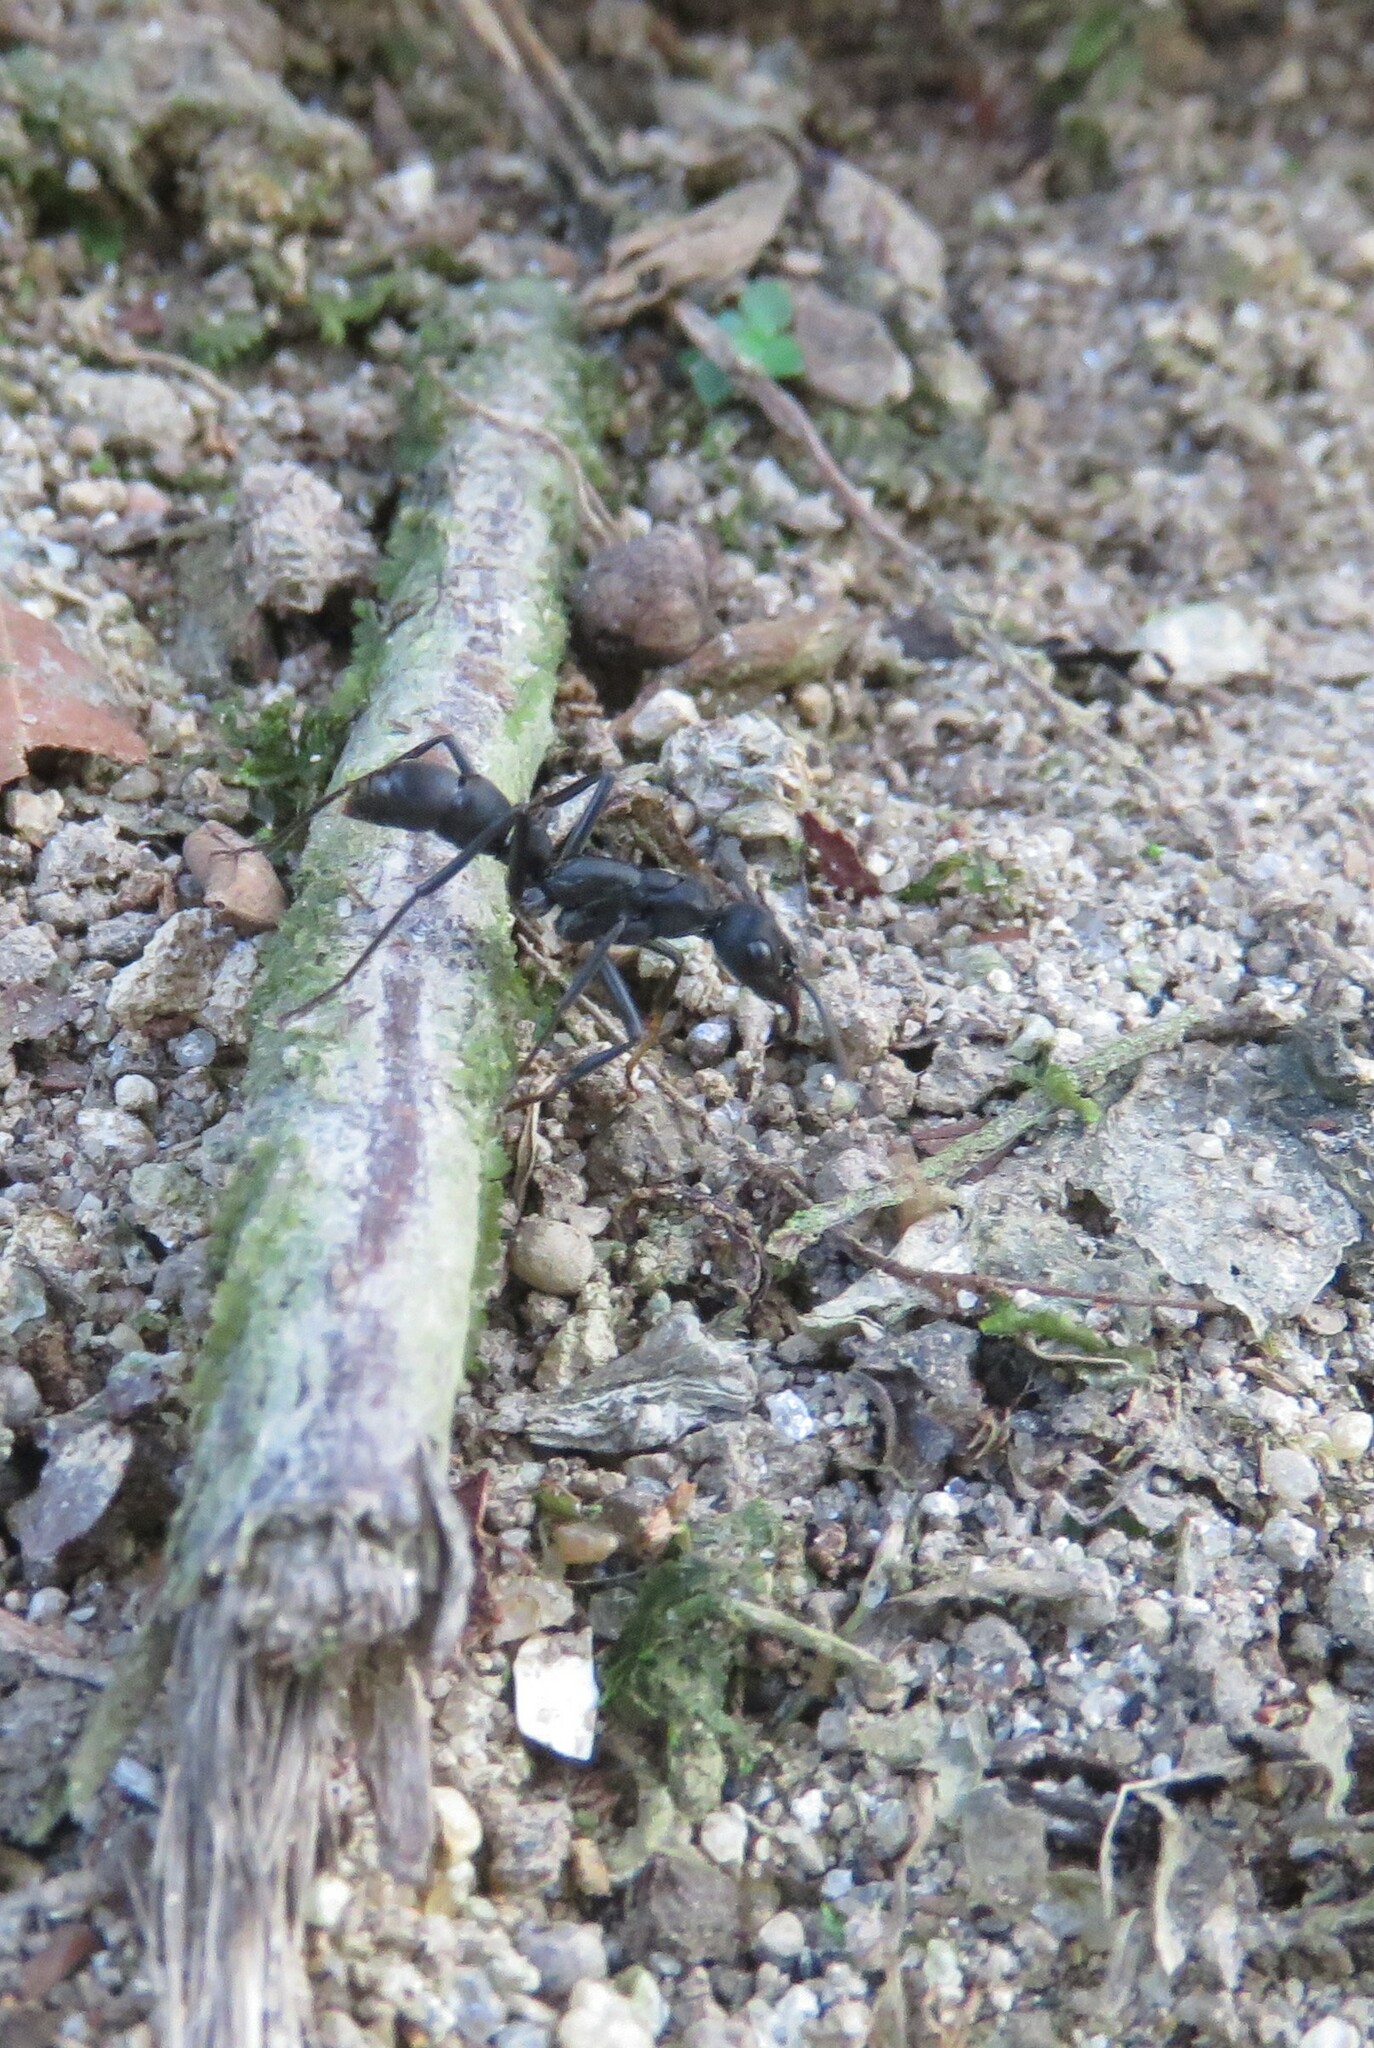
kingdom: Animalia
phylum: Arthropoda
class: Insecta
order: Hymenoptera
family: Formicidae
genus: Pachycondyla
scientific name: Pachycondyla apicalis
